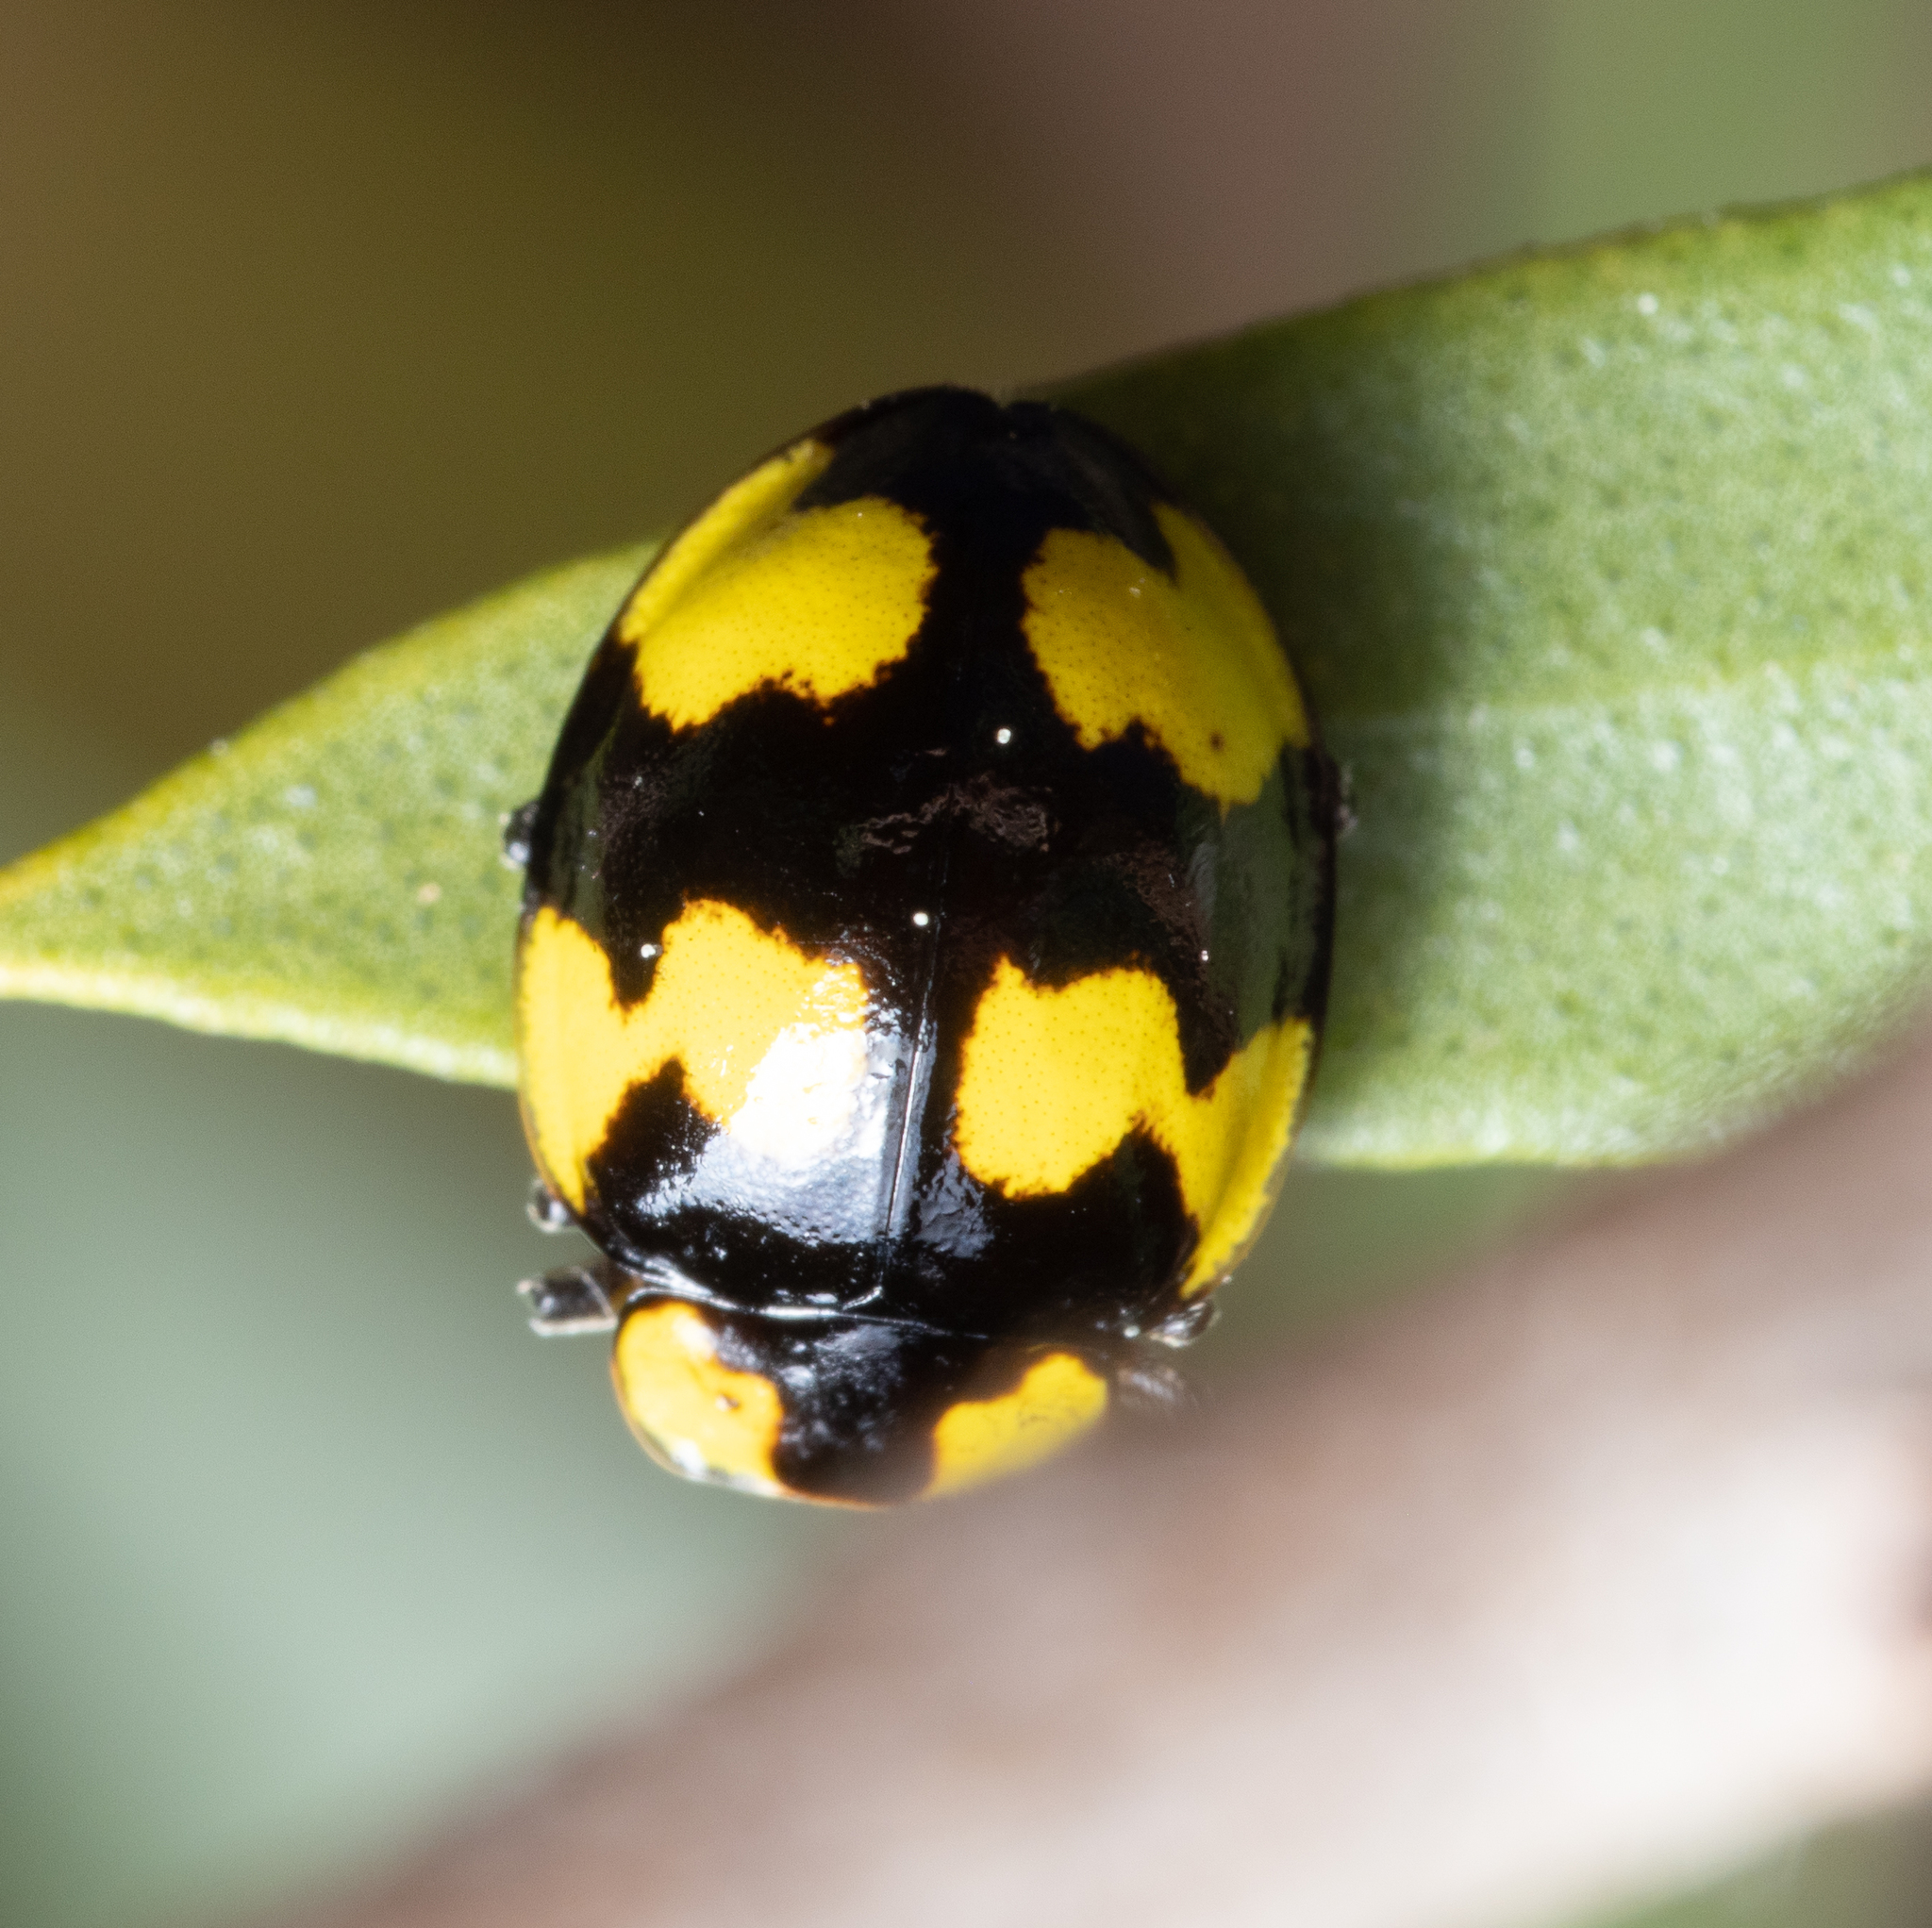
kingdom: Animalia
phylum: Arthropoda
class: Insecta
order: Coleoptera
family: Coccinellidae
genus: Illeis
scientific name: Illeis galbula
